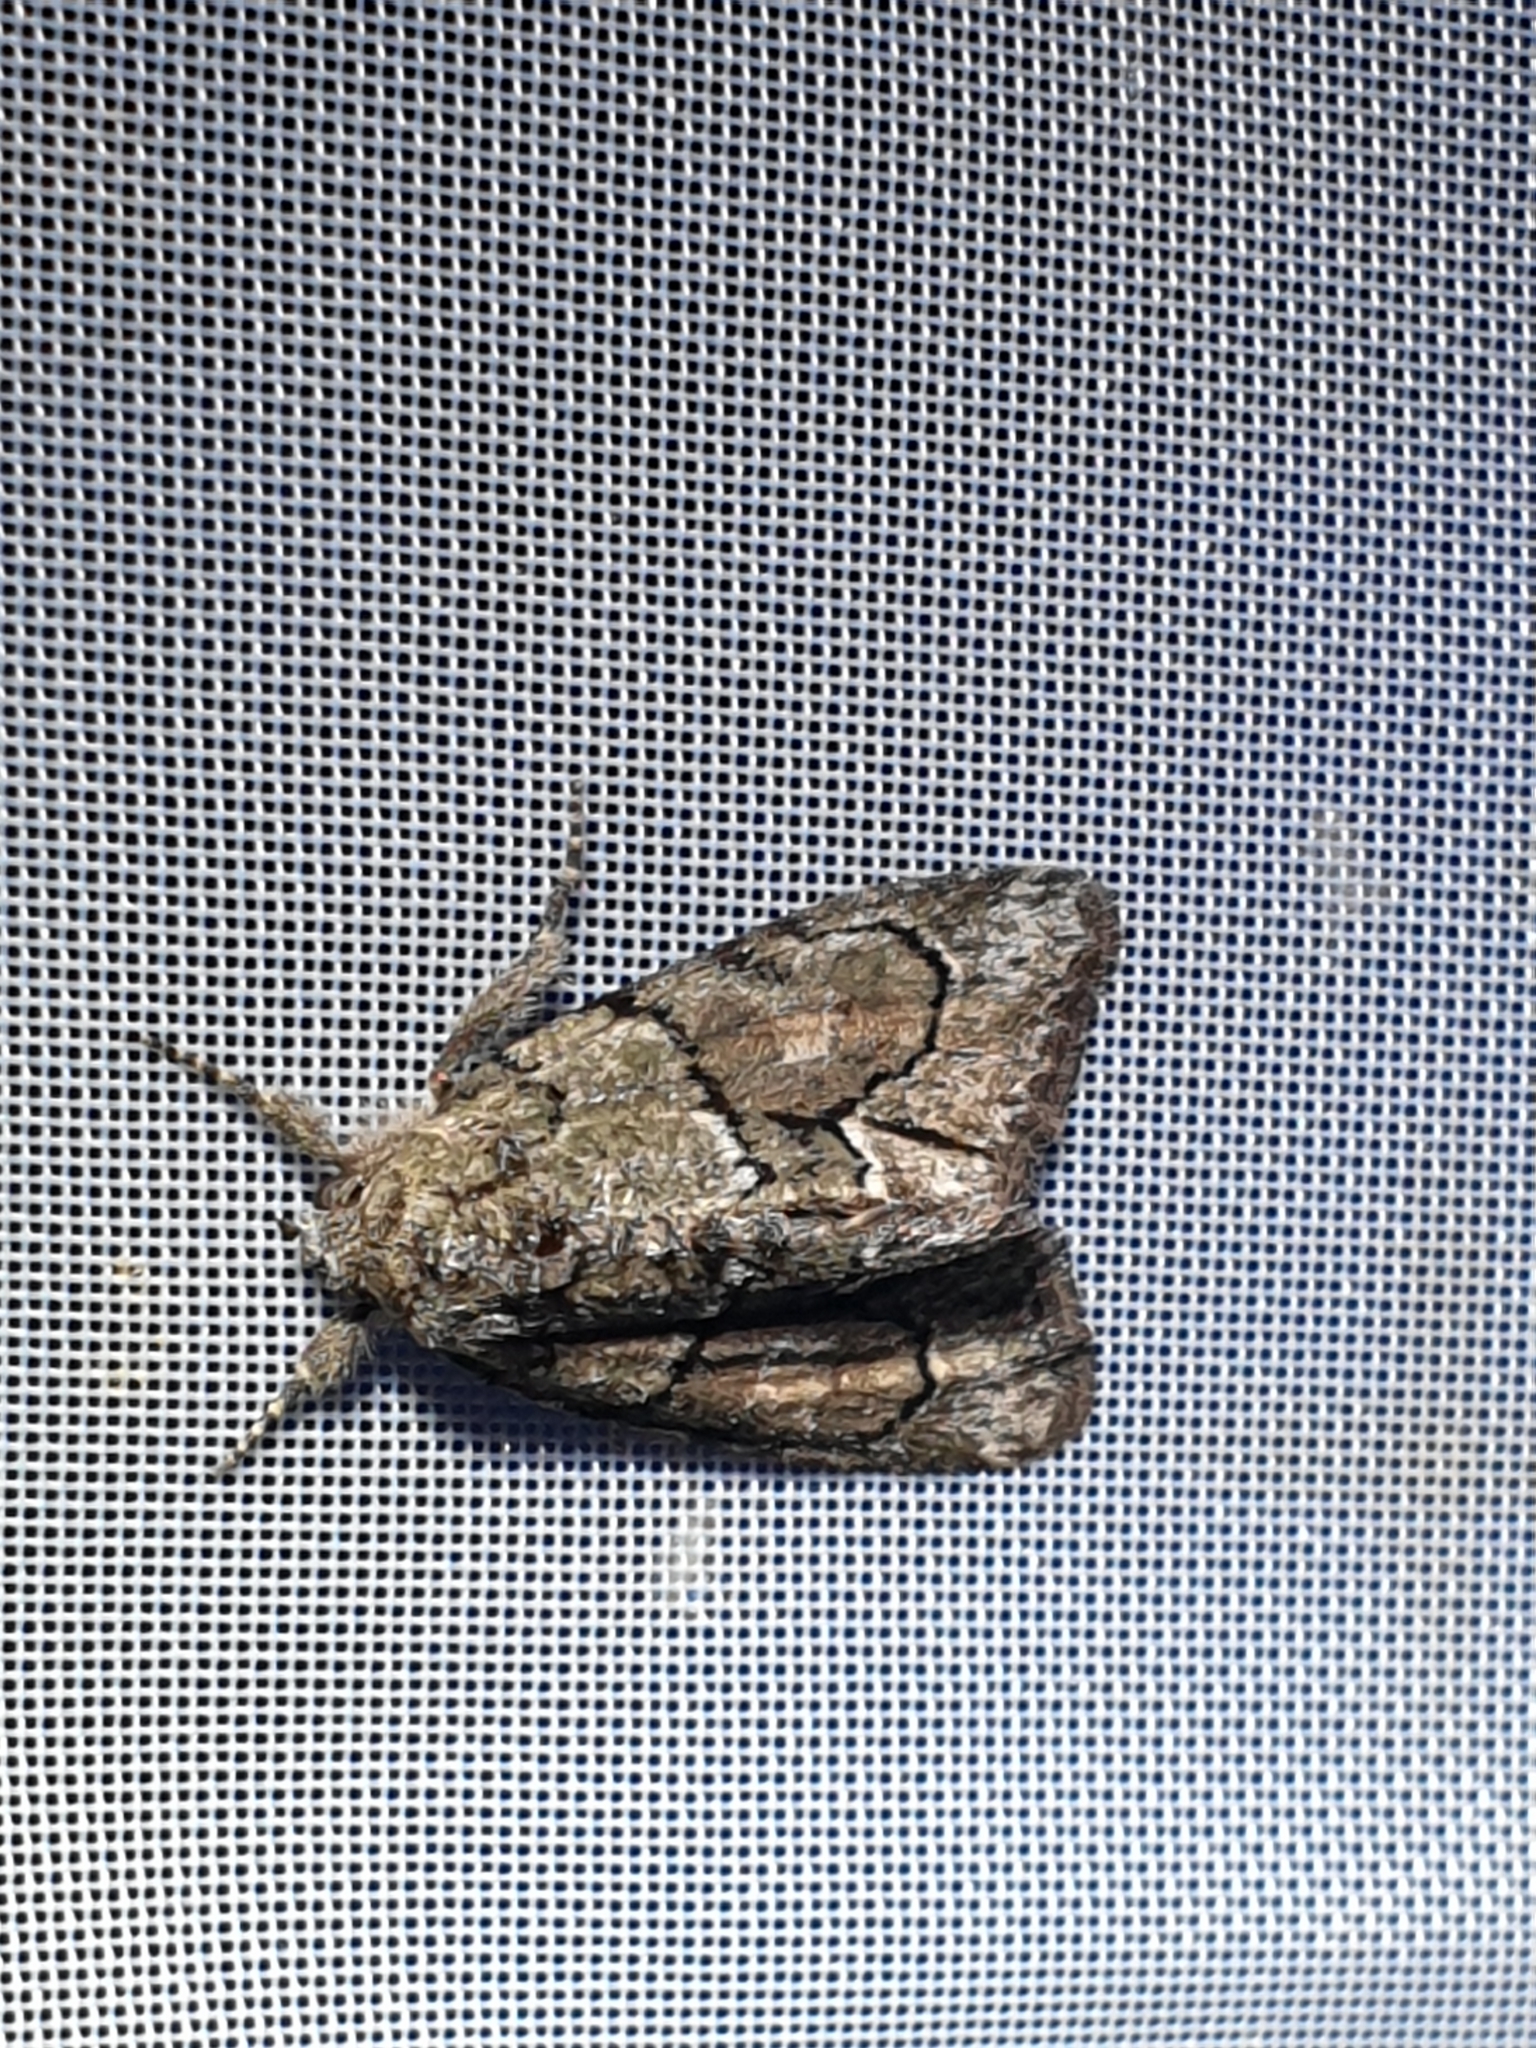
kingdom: Animalia
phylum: Arthropoda
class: Insecta
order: Lepidoptera
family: Noctuidae
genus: Cryphia
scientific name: Cryphia fraudatricula
